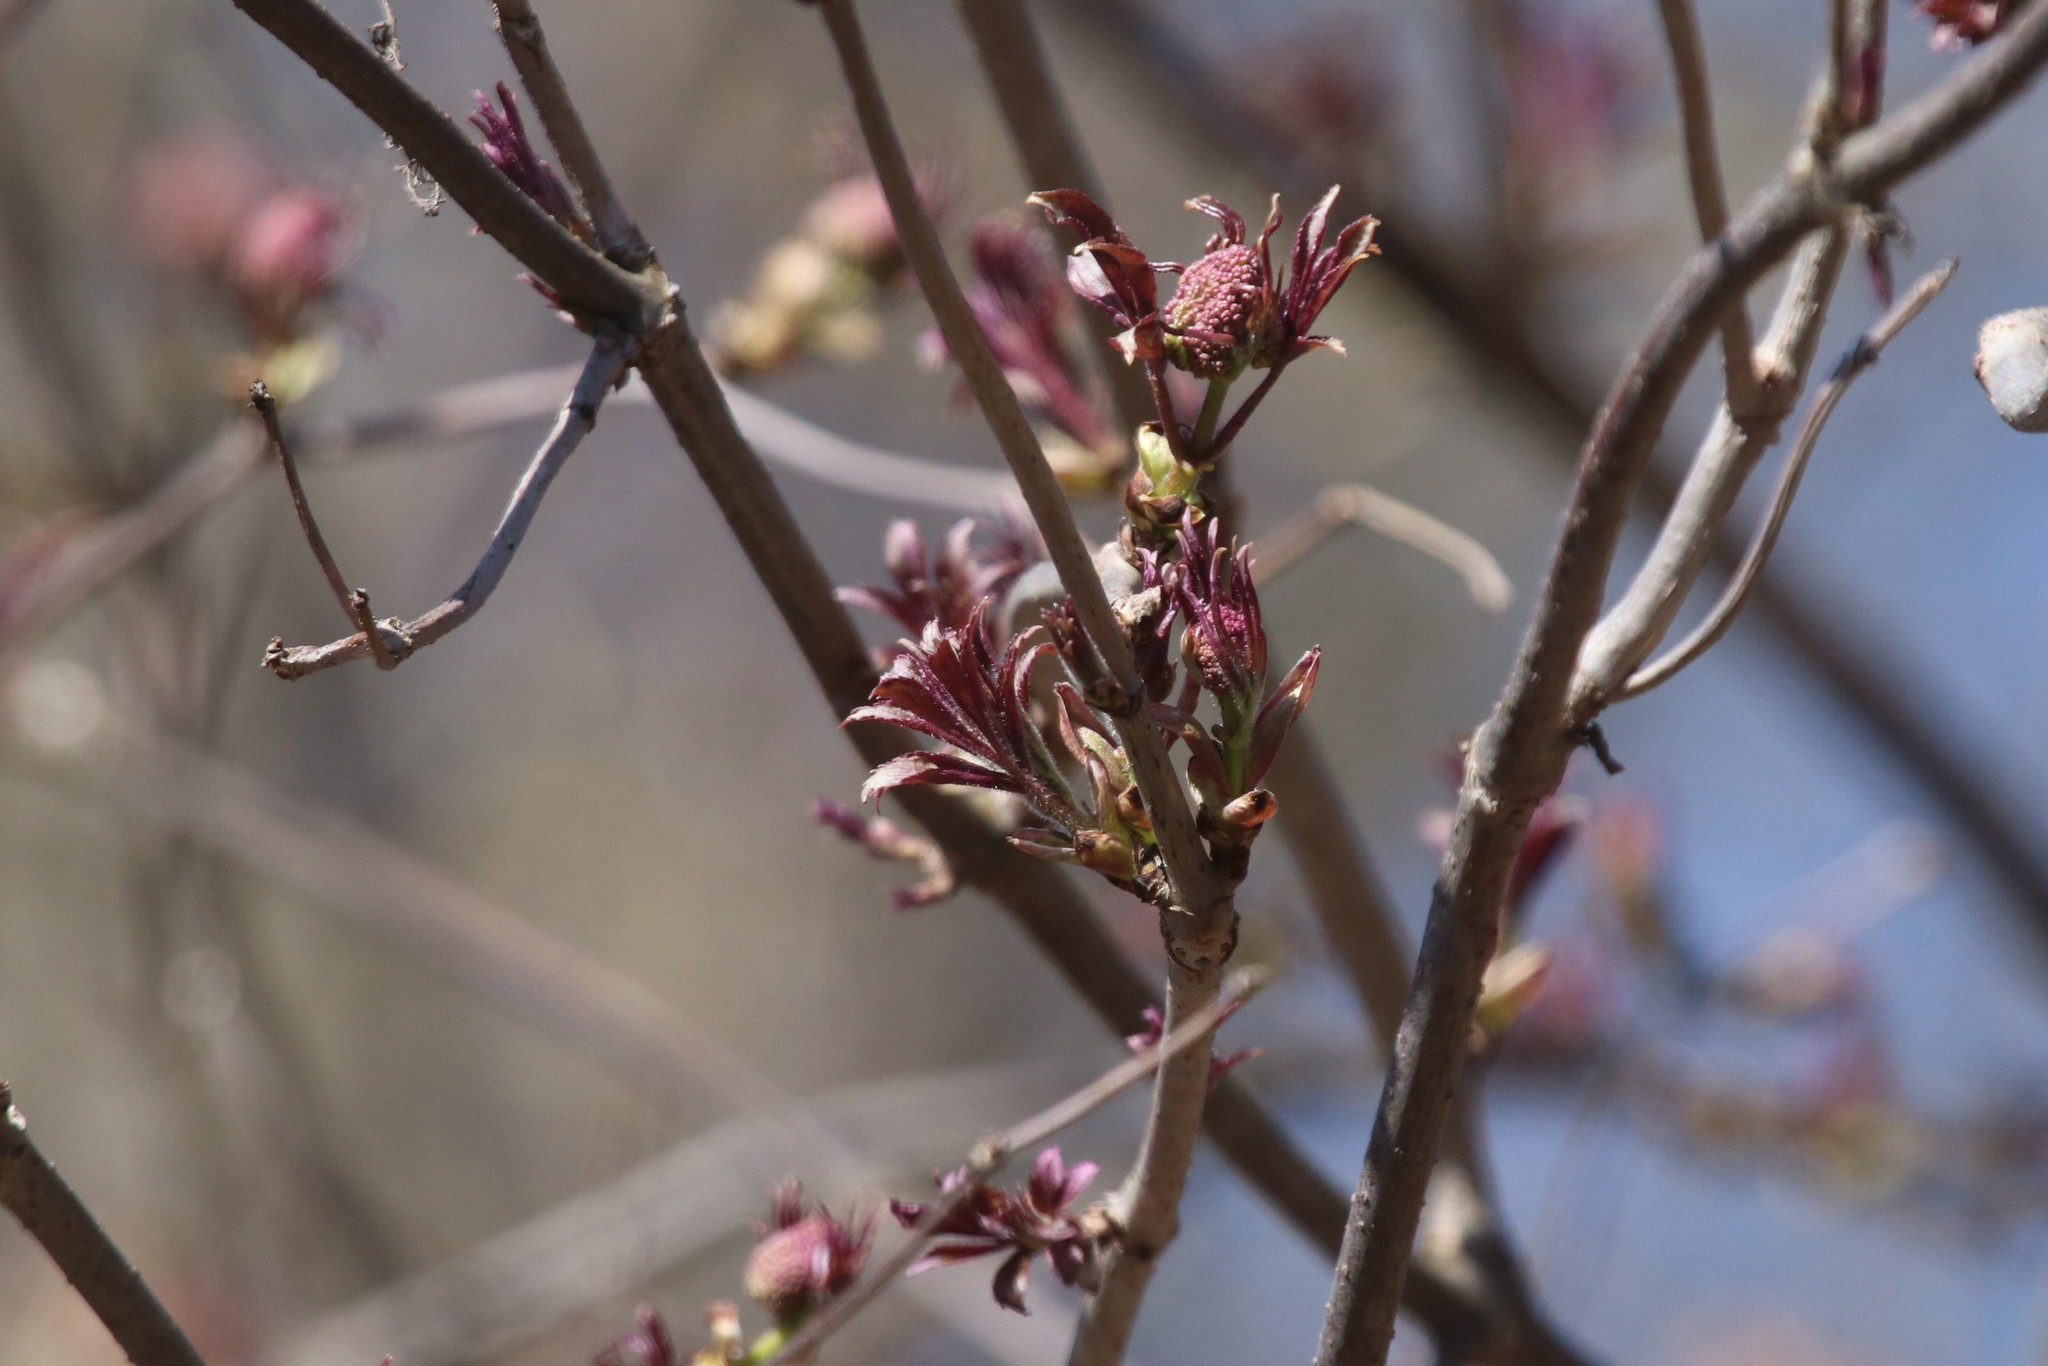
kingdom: Plantae
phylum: Tracheophyta
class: Magnoliopsida
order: Dipsacales
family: Viburnaceae
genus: Sambucus
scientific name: Sambucus racemosa
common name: Red-berried elder
